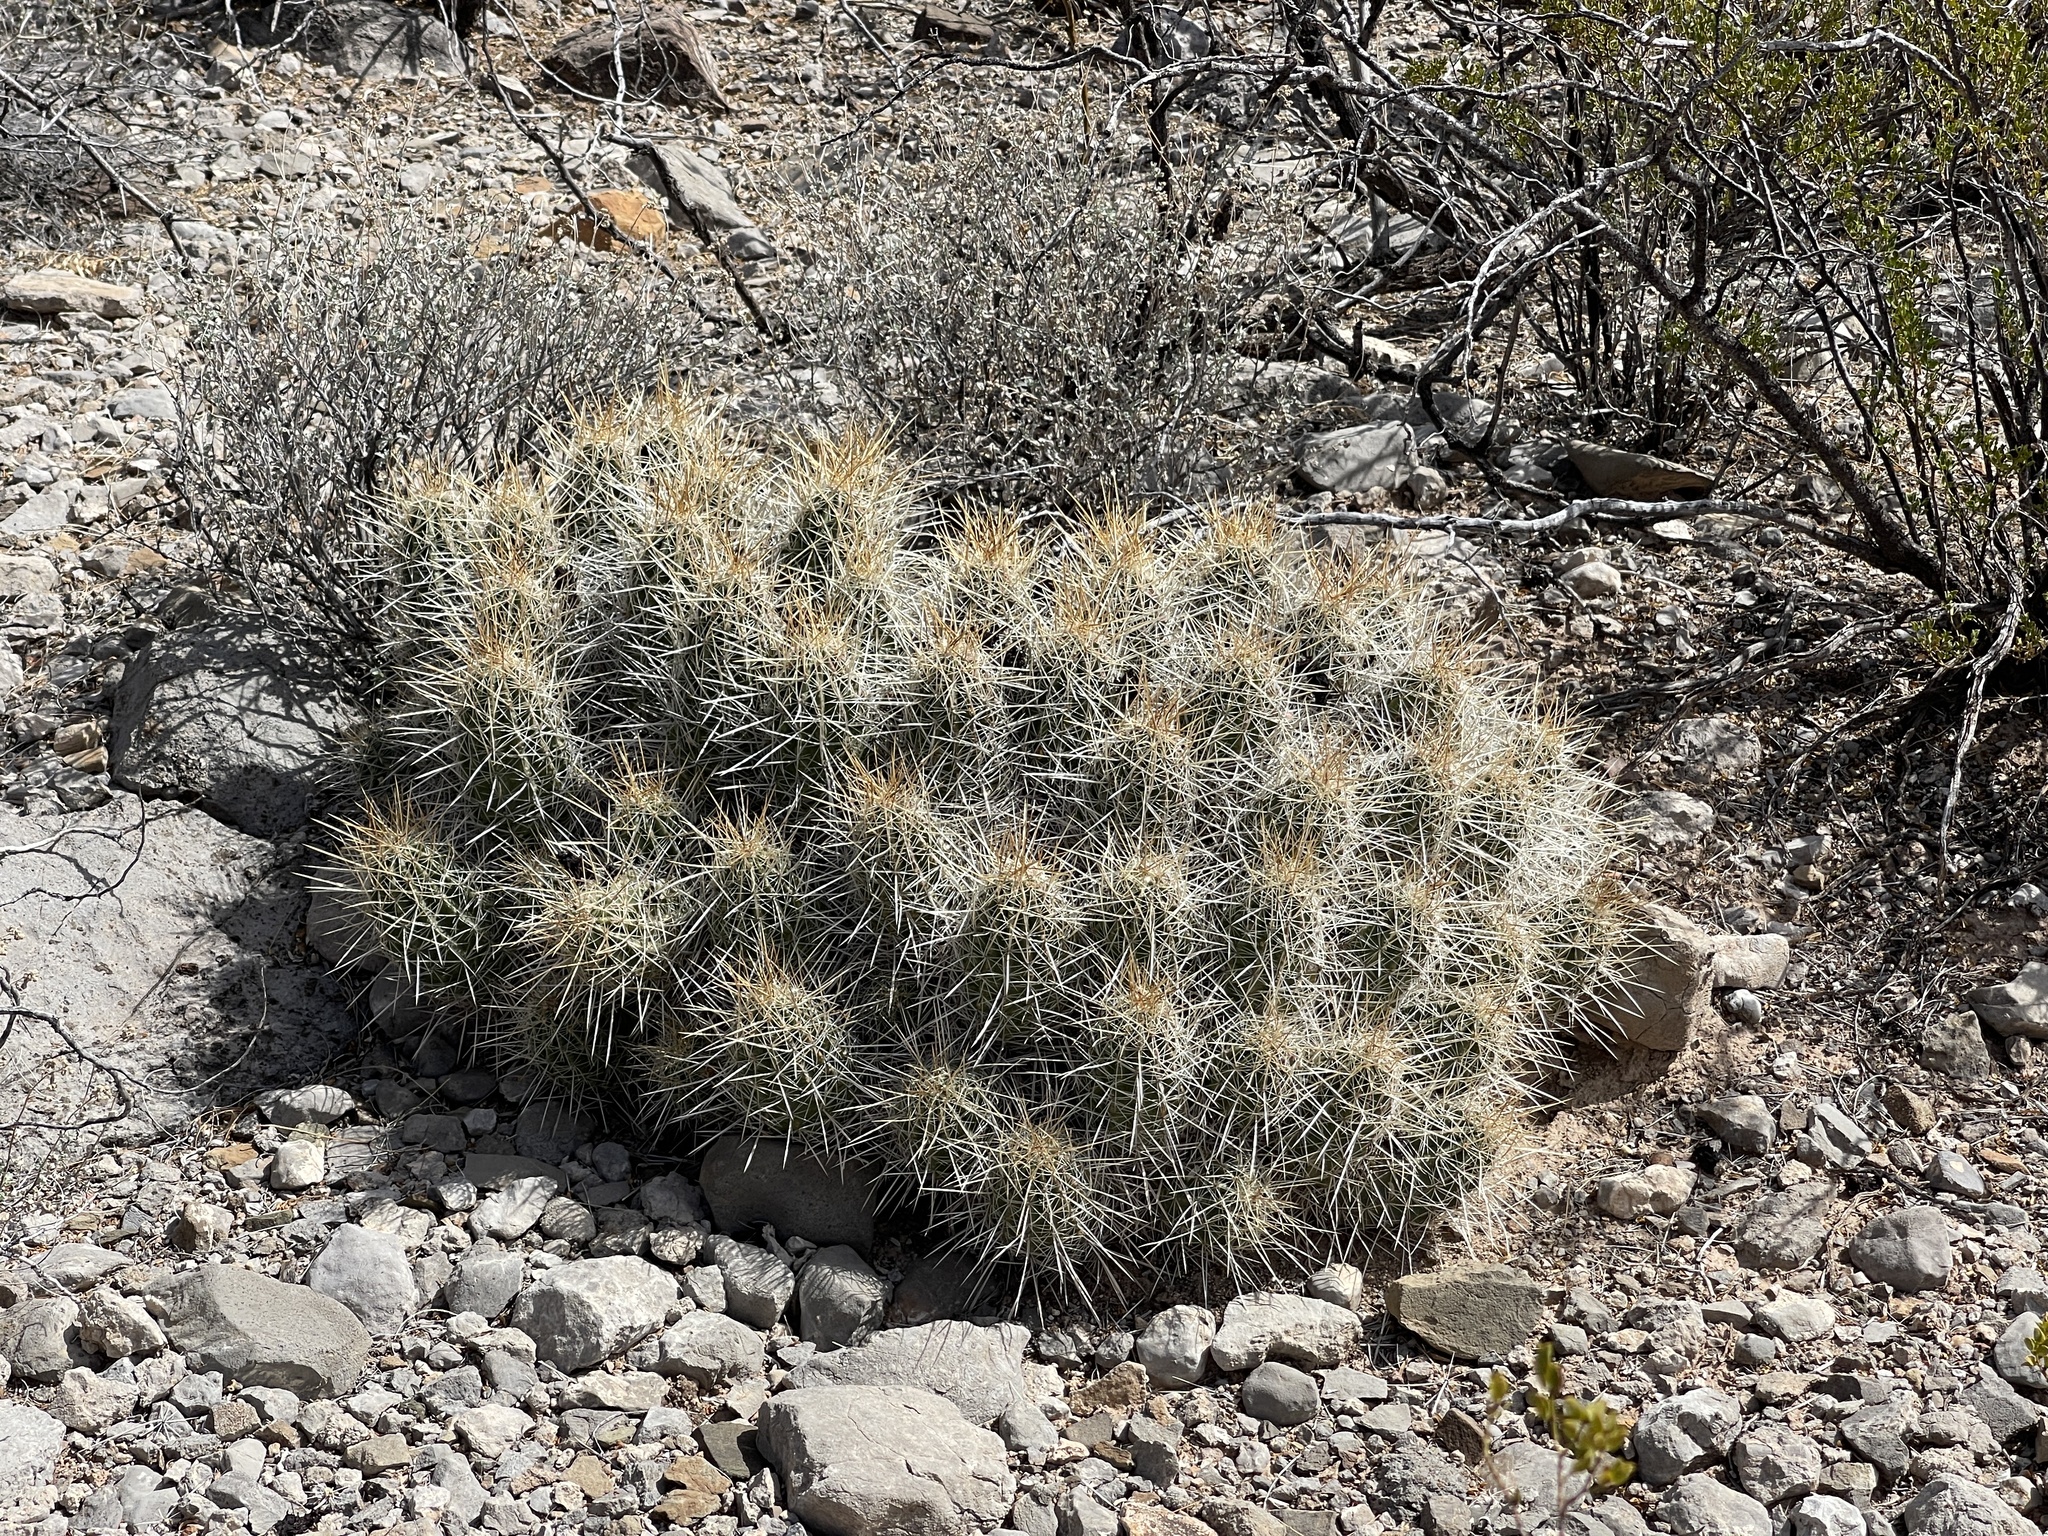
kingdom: Plantae
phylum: Tracheophyta
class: Magnoliopsida
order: Caryophyllales
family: Cactaceae
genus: Echinocereus
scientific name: Echinocereus stramineus
